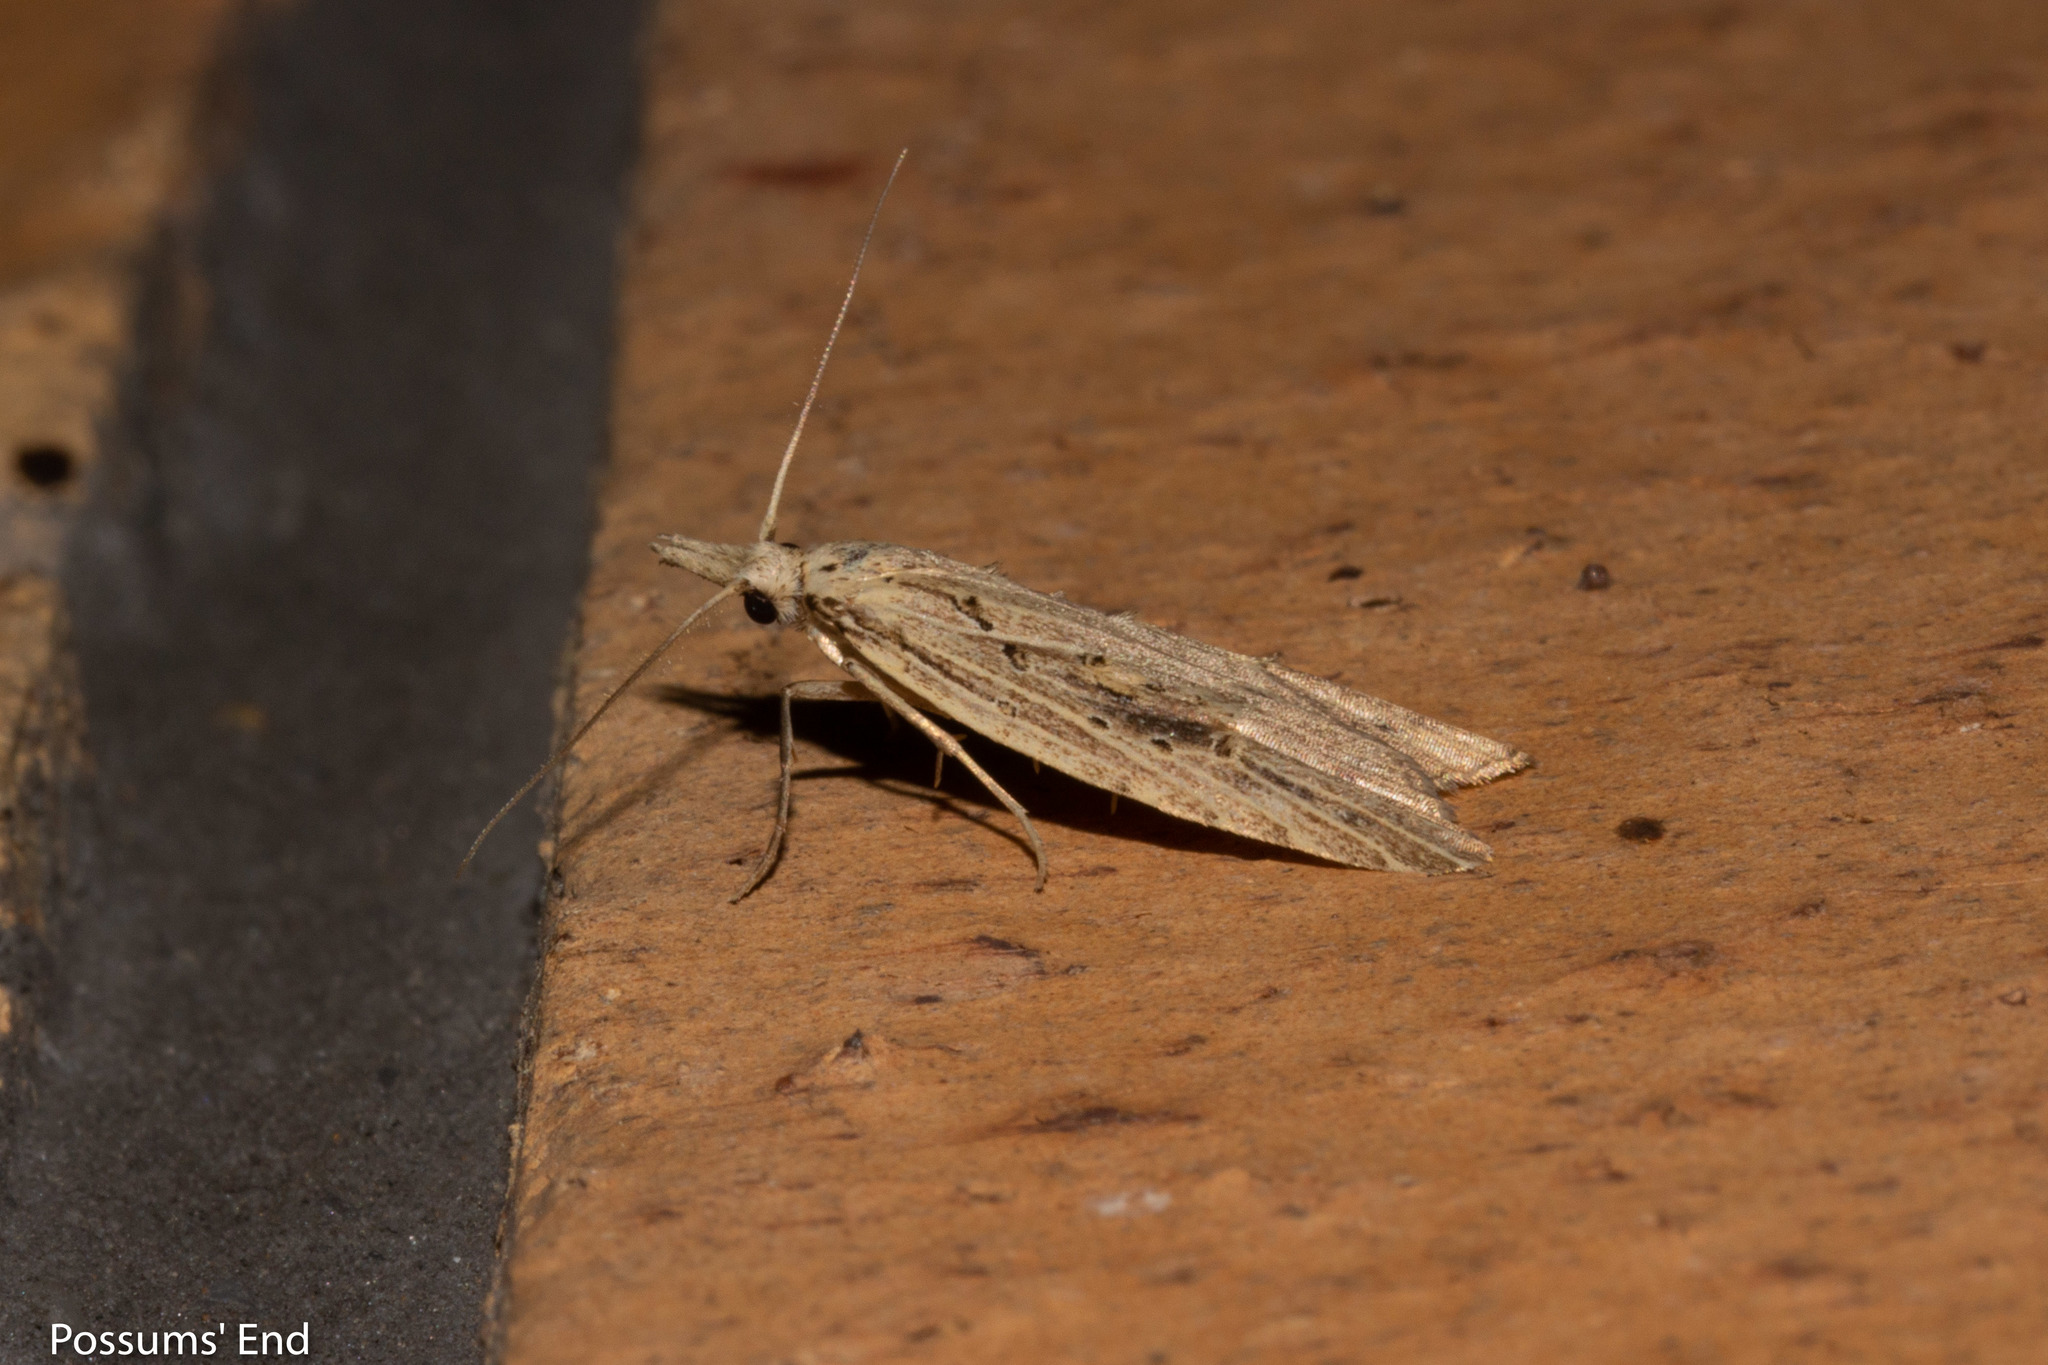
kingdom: Animalia
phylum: Arthropoda
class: Insecta
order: Lepidoptera
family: Carposinidae
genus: Carposina
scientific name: Carposina Heterocrossa exochana
